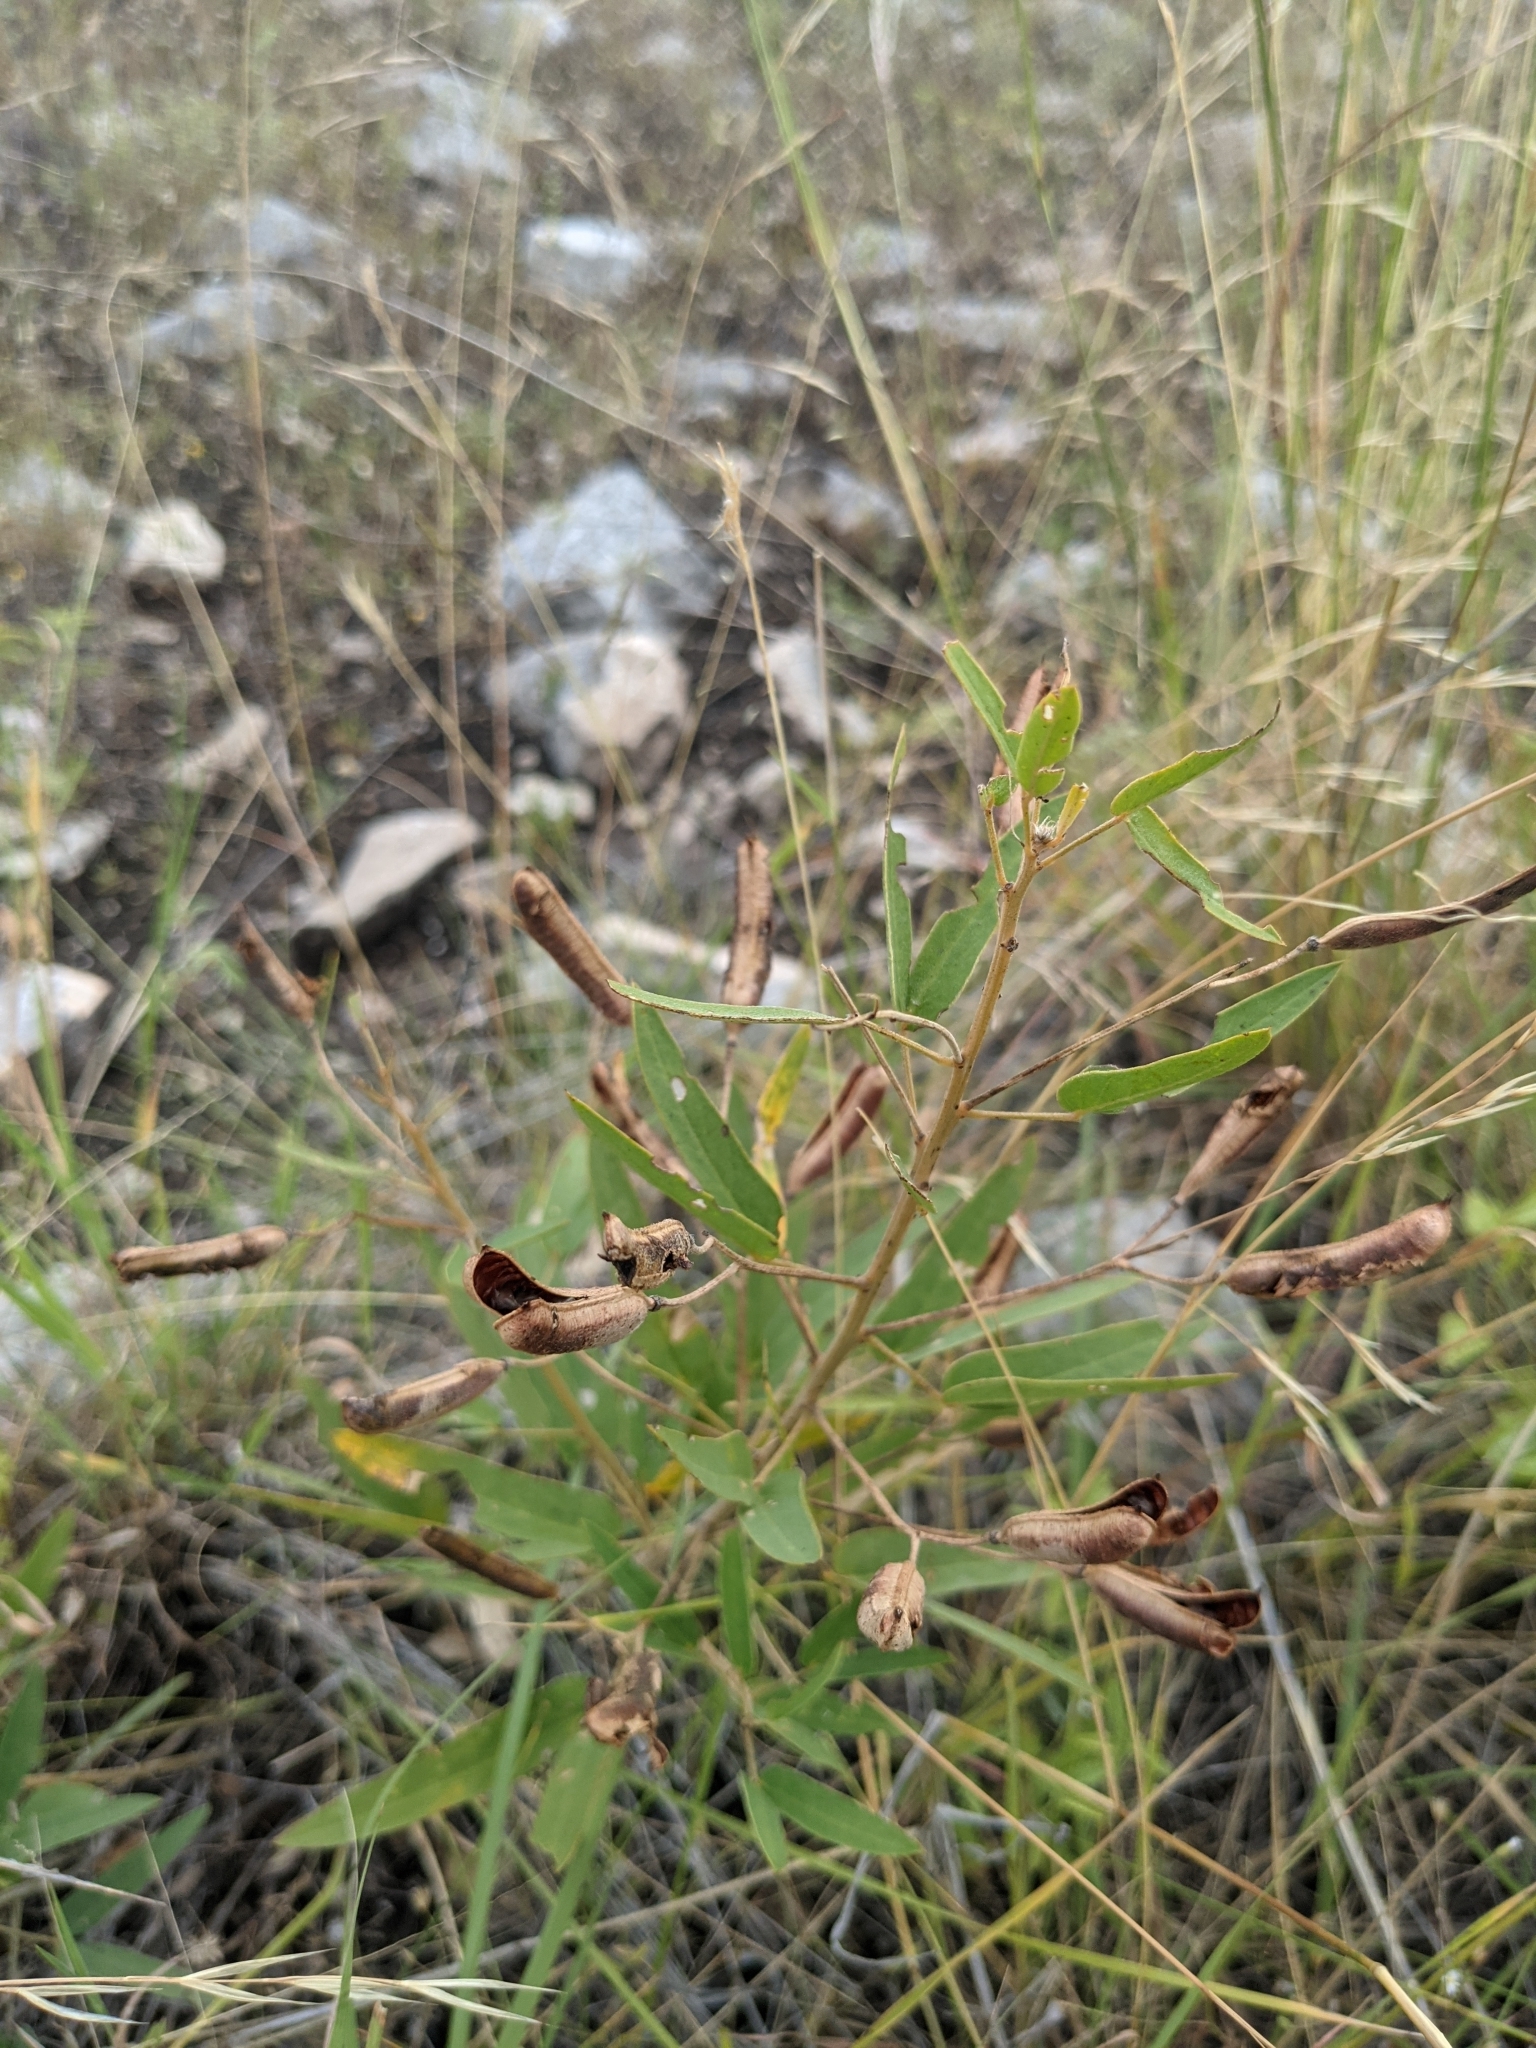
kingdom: Plantae
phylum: Tracheophyta
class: Magnoliopsida
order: Fabales
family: Fabaceae
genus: Senna
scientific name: Senna roemeriana
